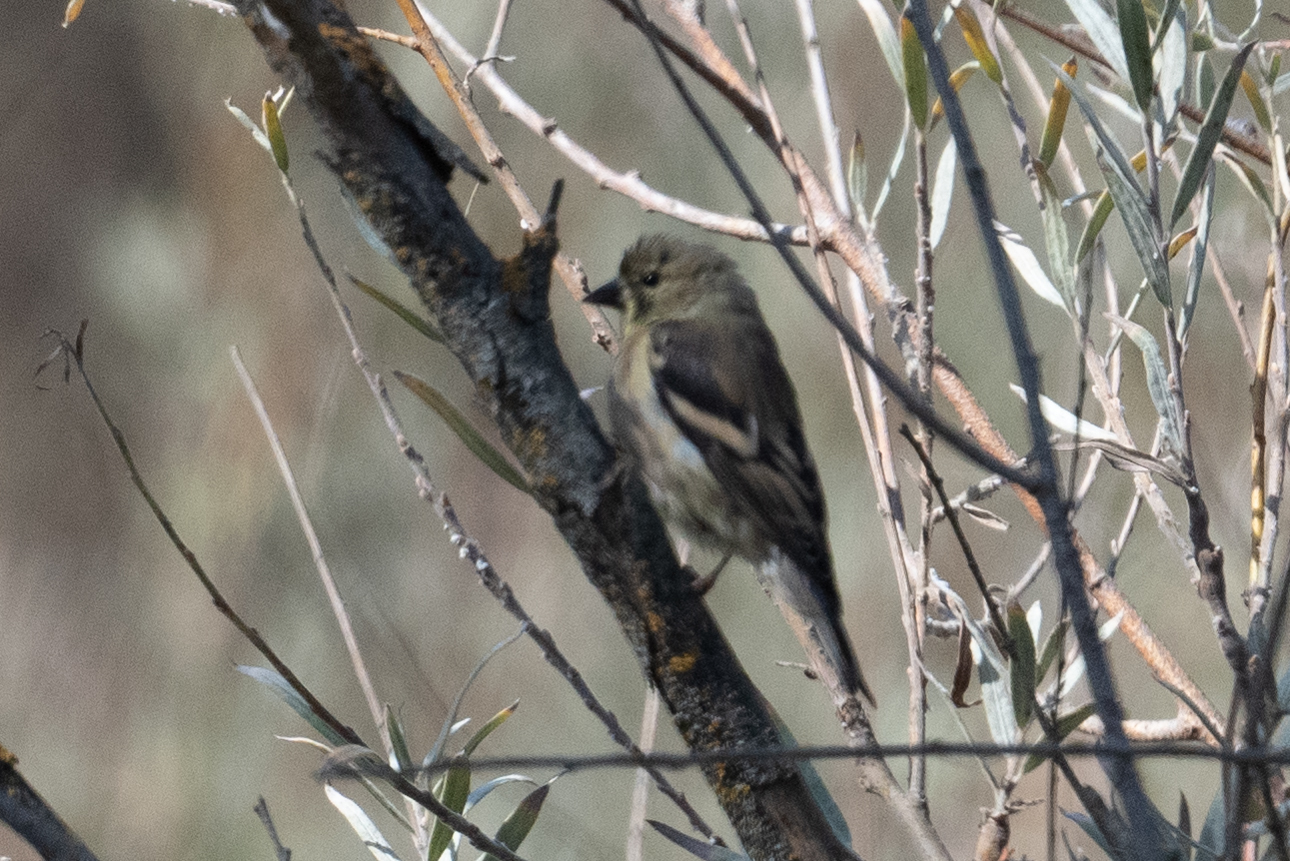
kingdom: Animalia
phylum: Chordata
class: Aves
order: Passeriformes
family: Fringillidae
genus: Spinus
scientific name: Spinus lawrencei
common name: Lawrence's goldfinch
